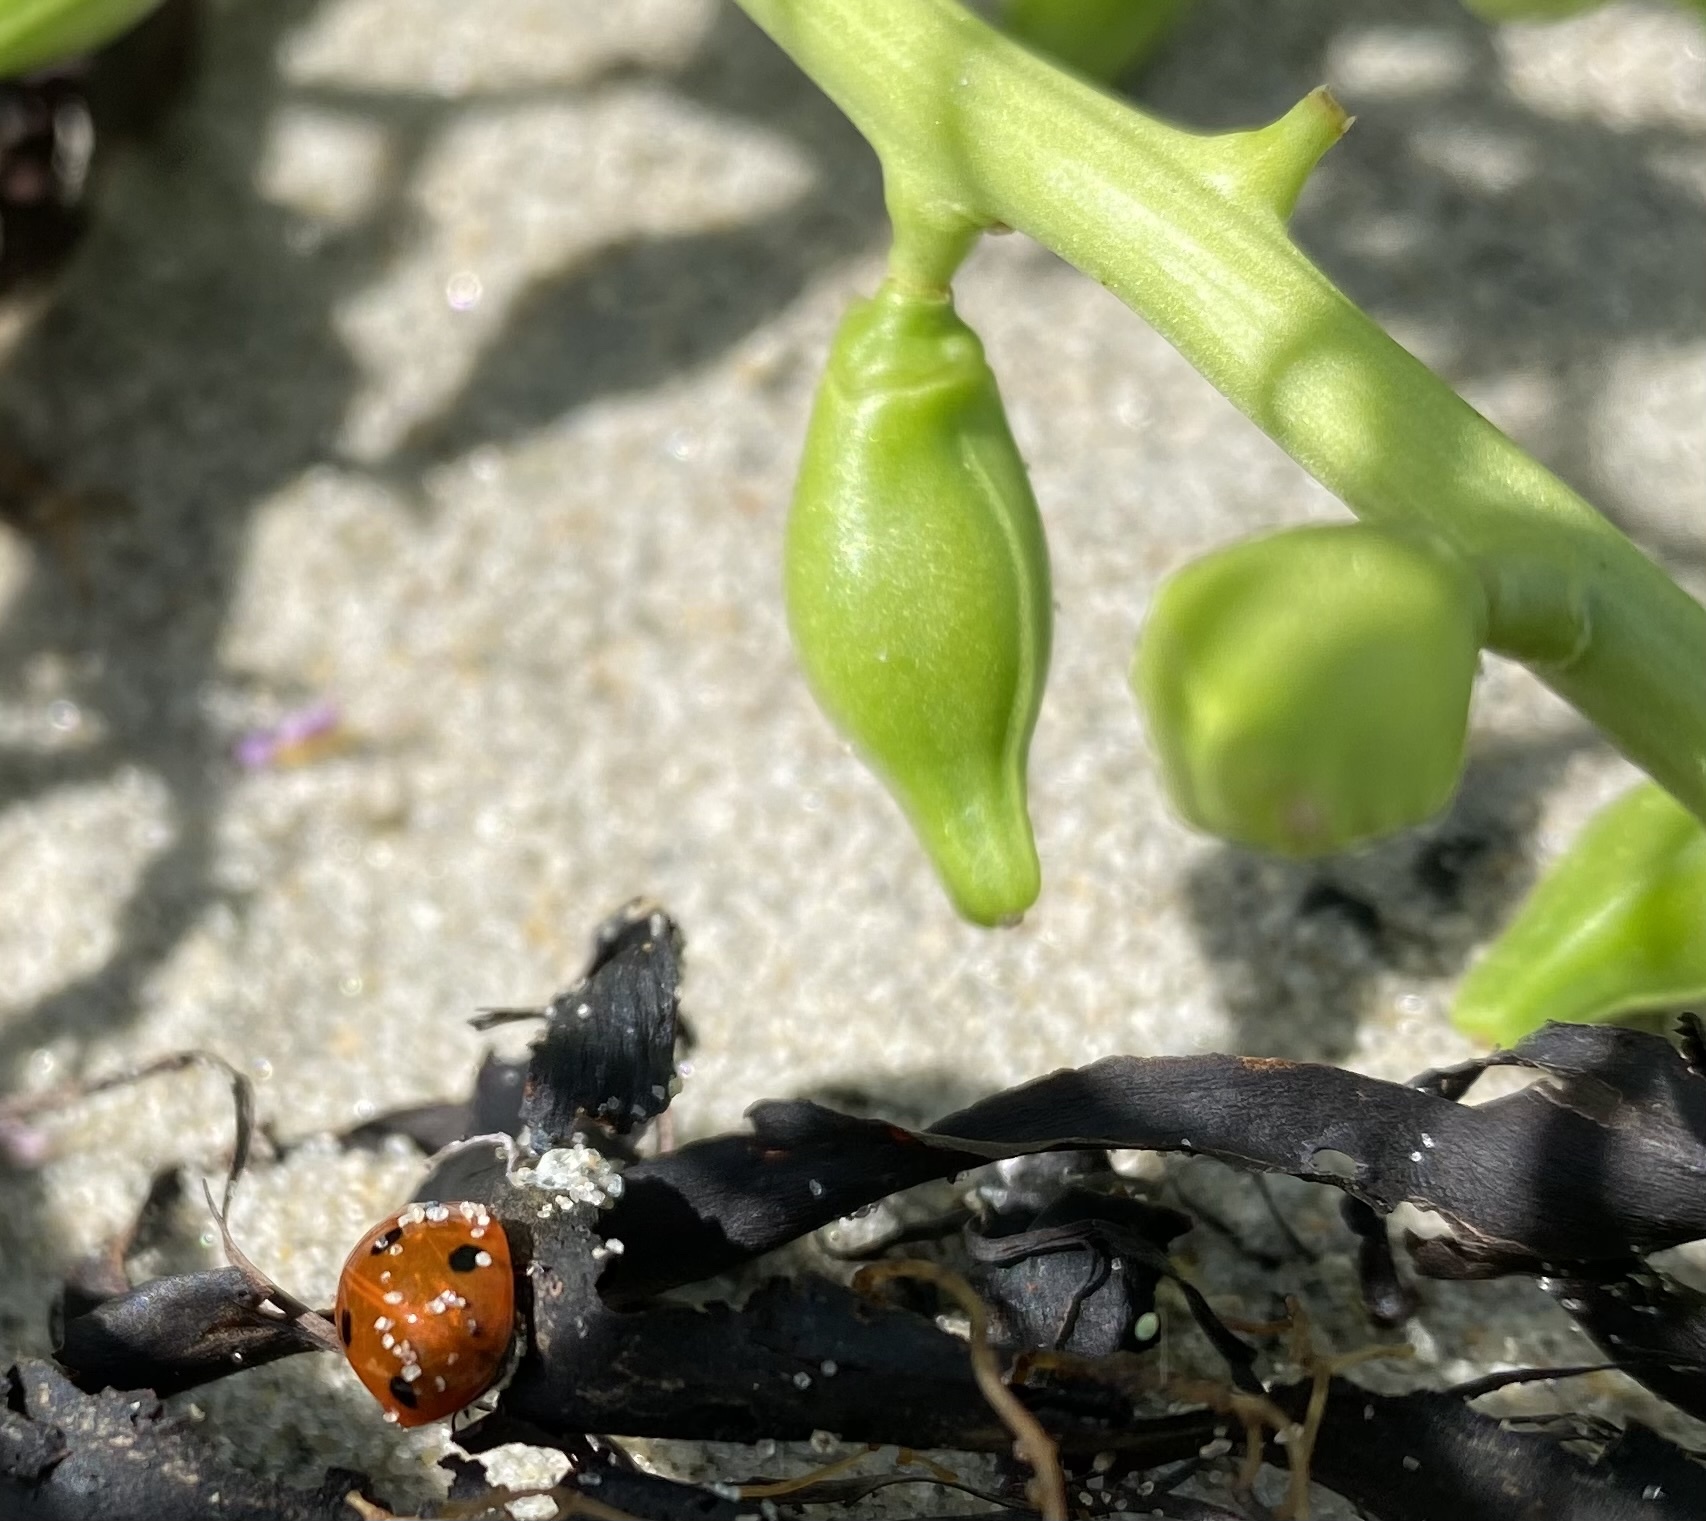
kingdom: Animalia
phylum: Arthropoda
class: Insecta
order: Coleoptera
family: Coccinellidae
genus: Coccinella
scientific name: Coccinella septempunctata
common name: Sevenspotted lady beetle
